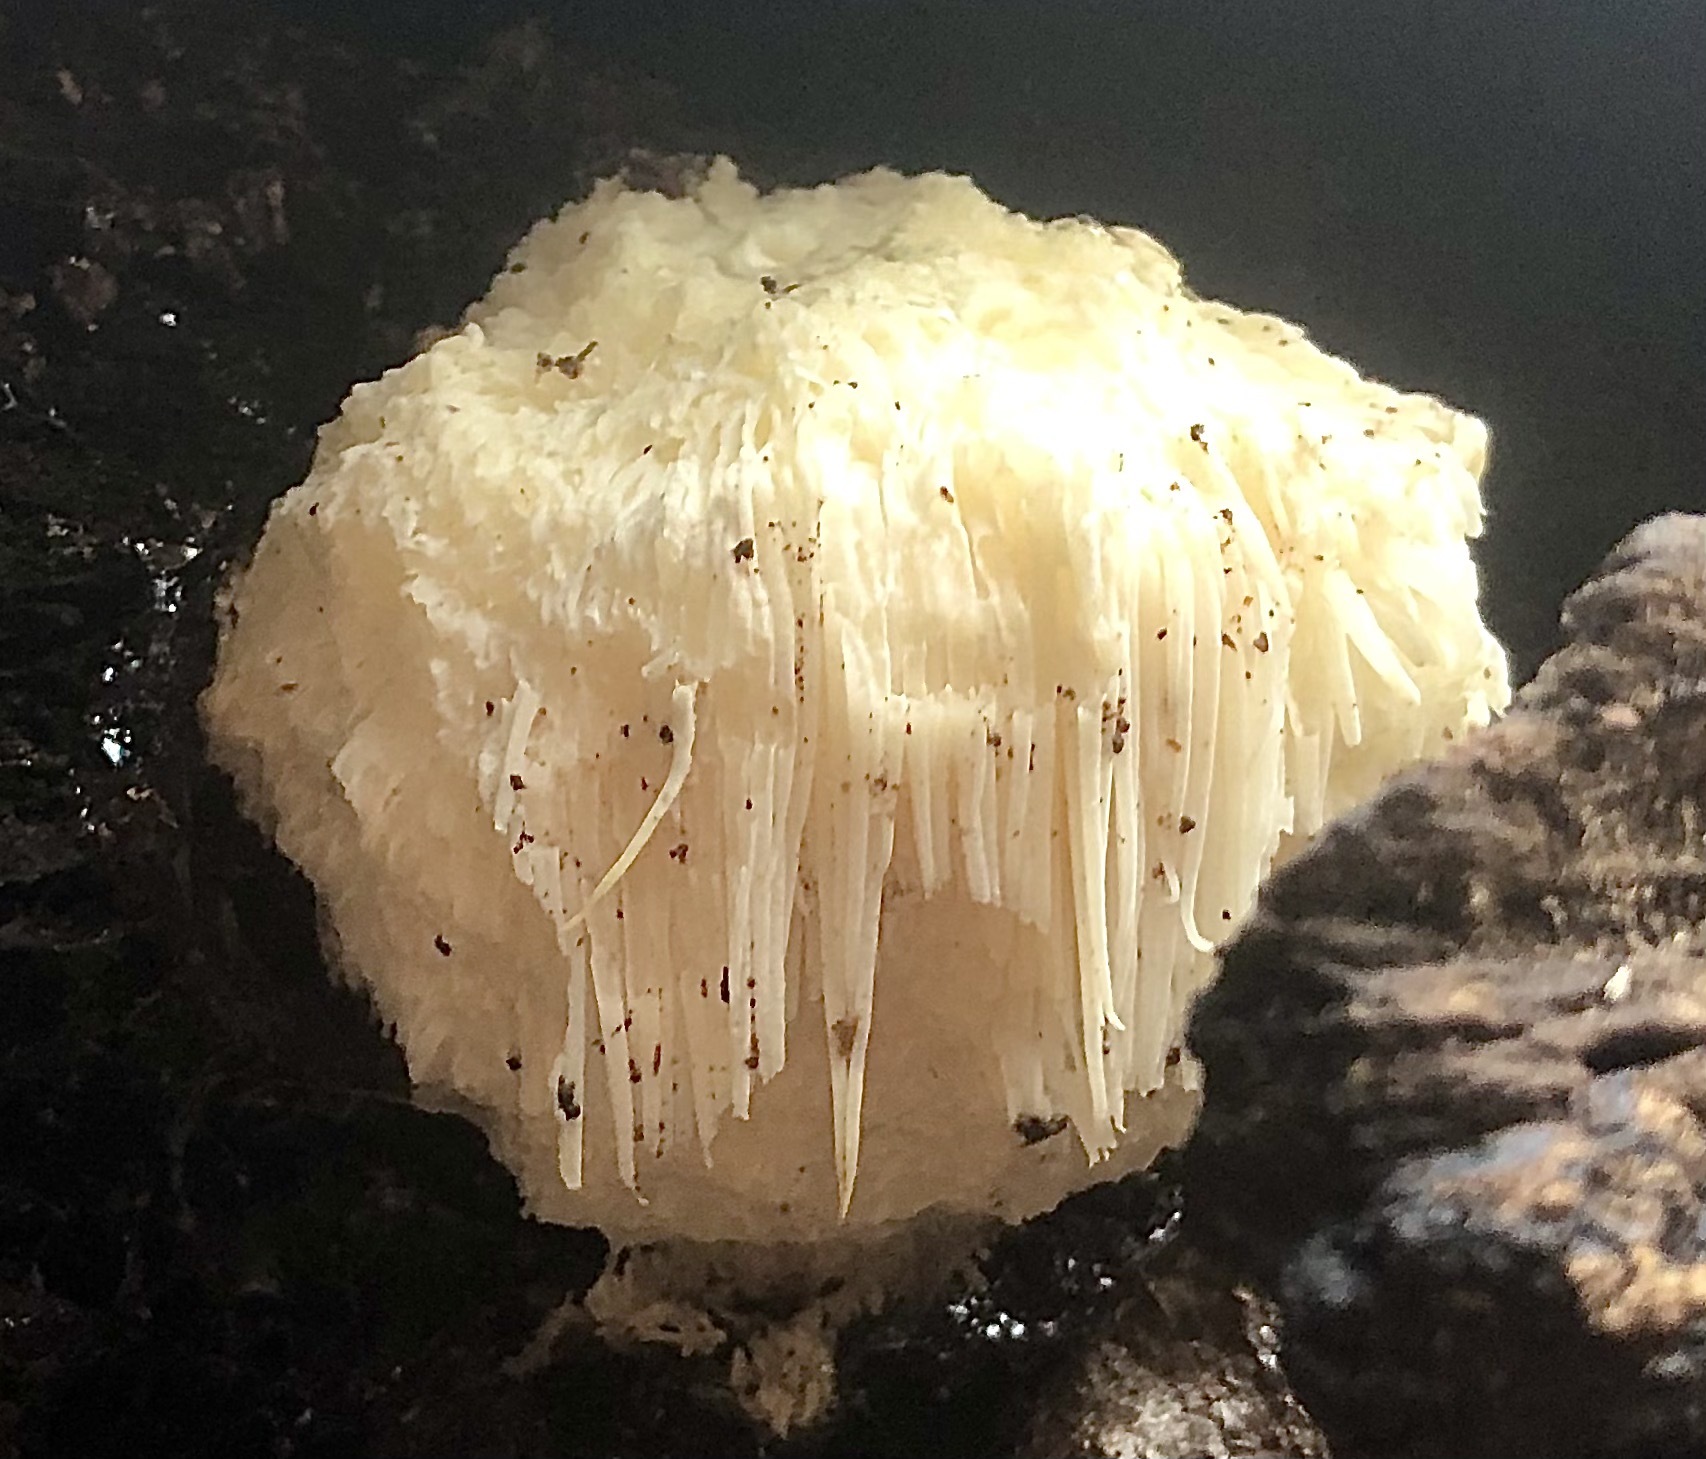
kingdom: Fungi
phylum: Basidiomycota
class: Agaricomycetes
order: Russulales
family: Hericiaceae
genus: Hericium
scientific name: Hericium erinaceus
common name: Bearded tooth
